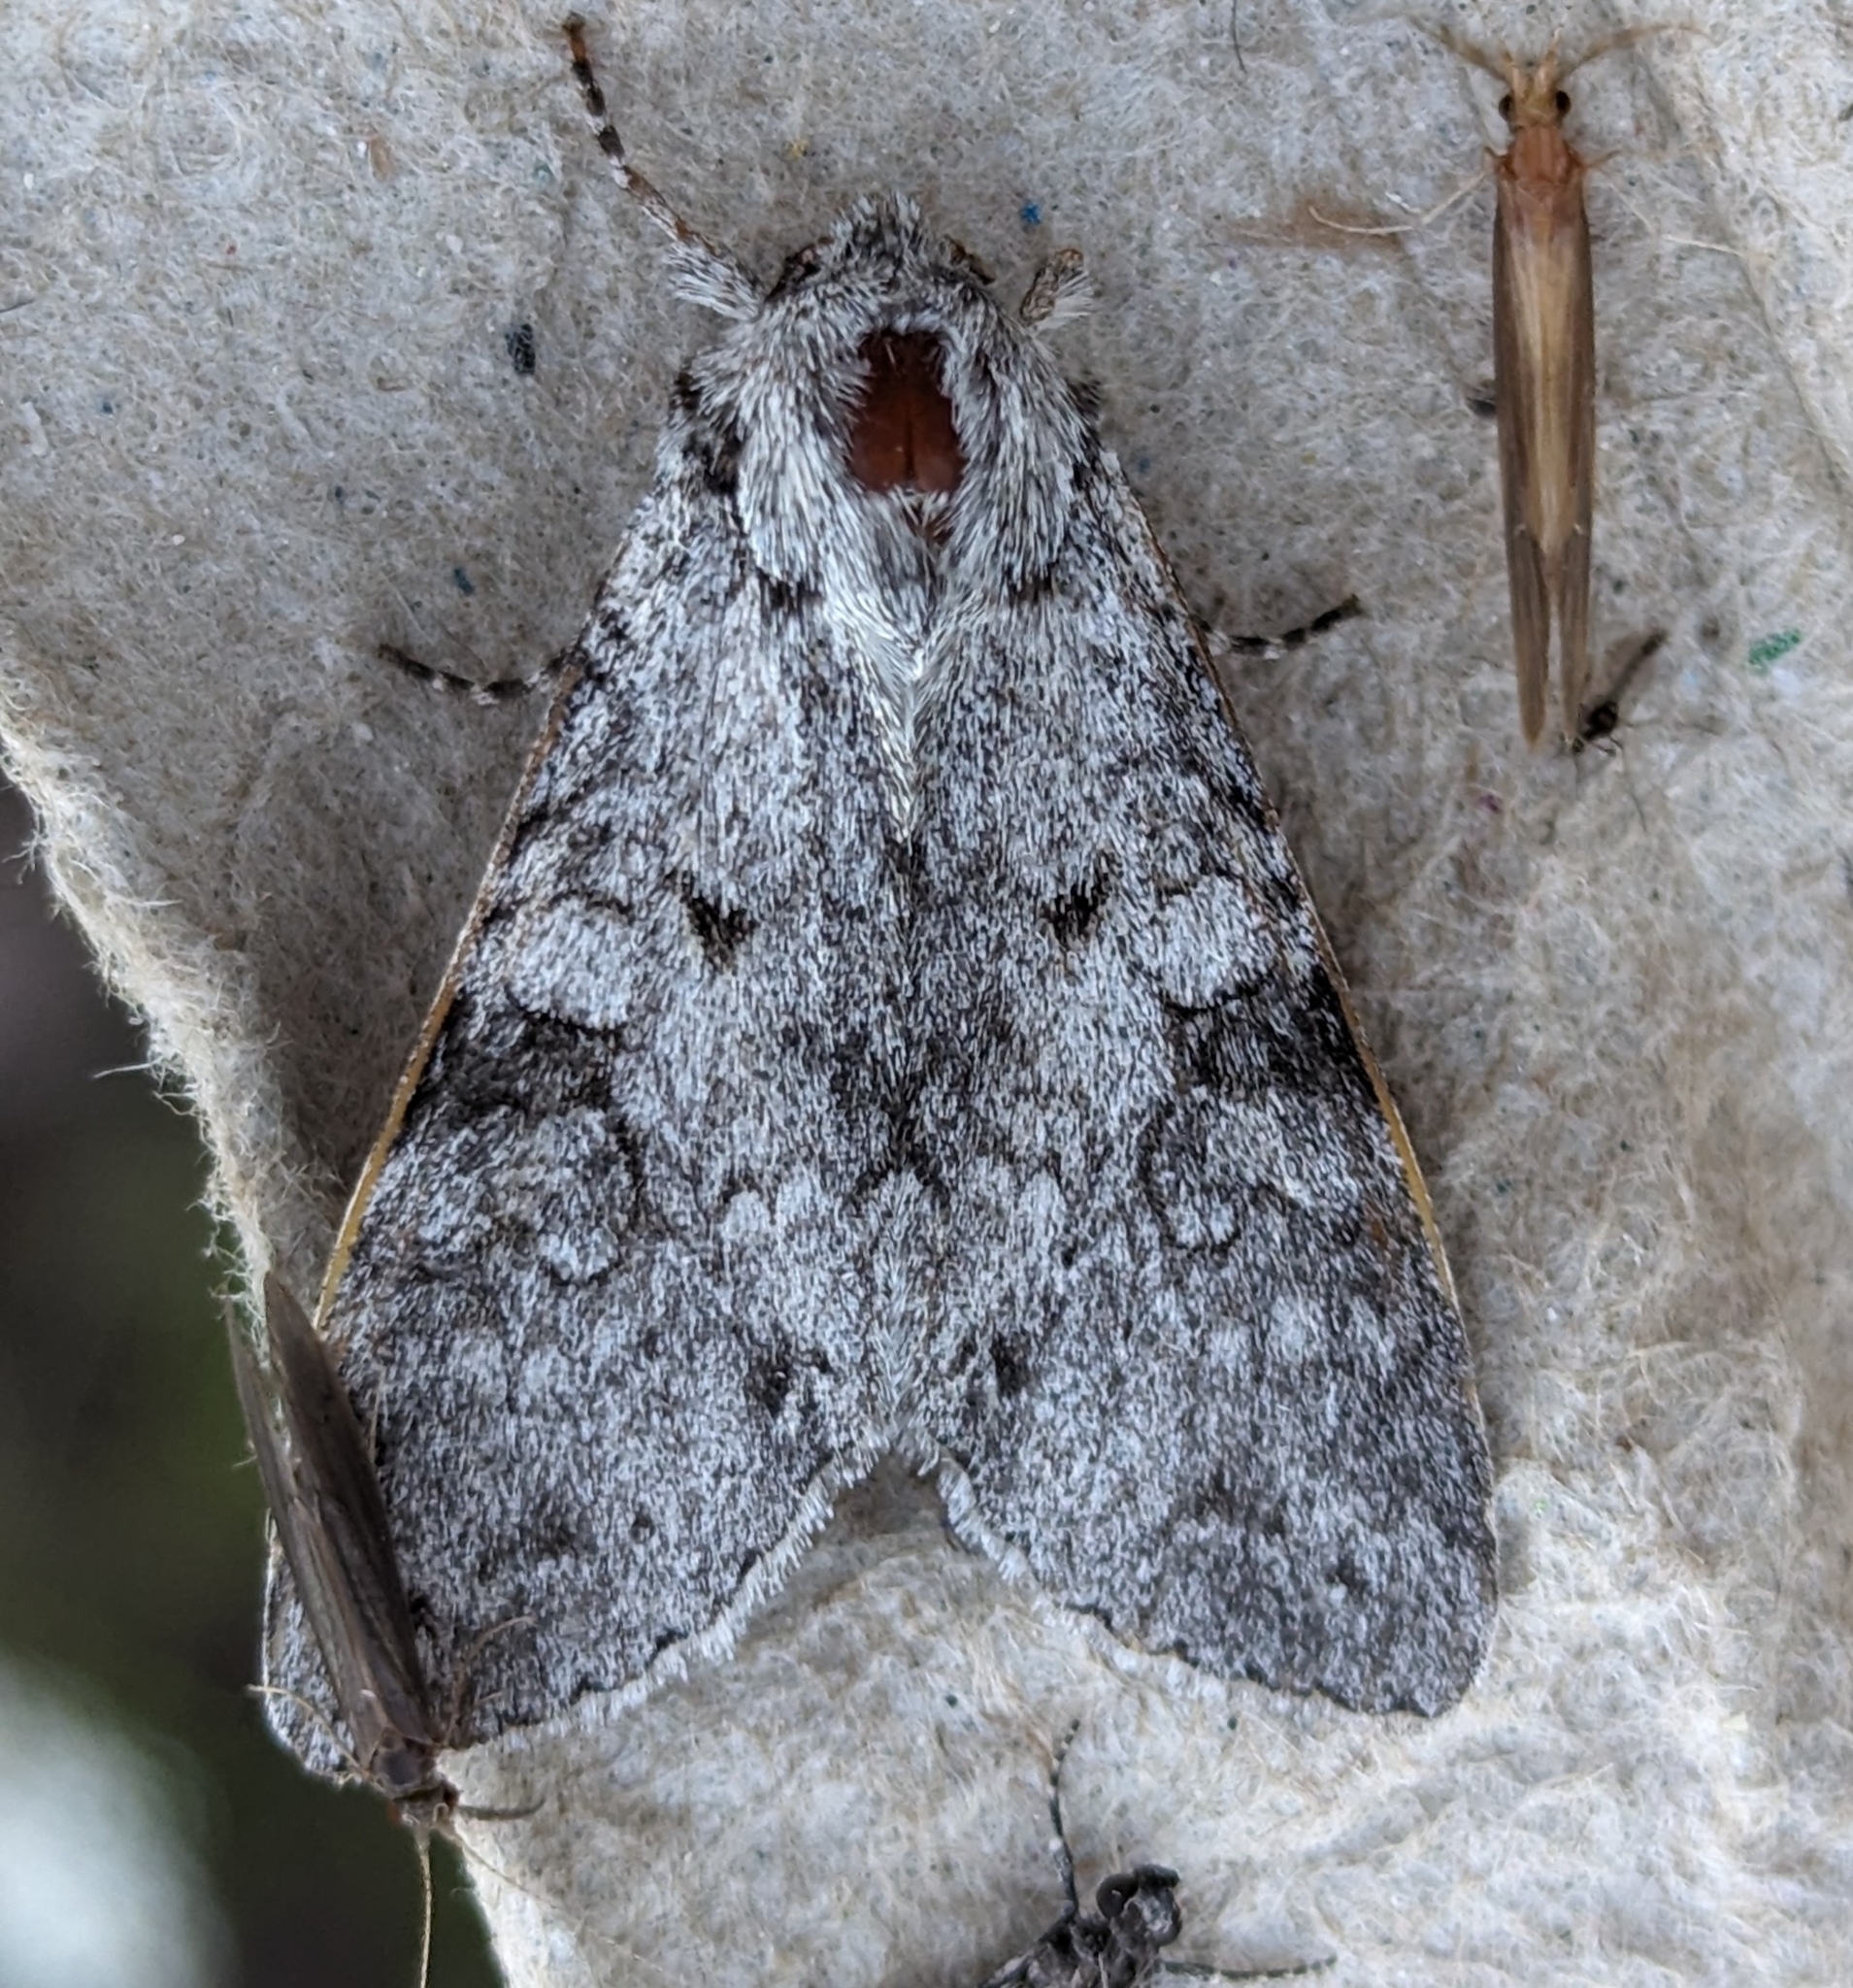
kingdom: Animalia
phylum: Arthropoda
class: Insecta
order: Lepidoptera
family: Noctuidae
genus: Polia
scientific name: Polia nimbosa
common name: Stormy arches
